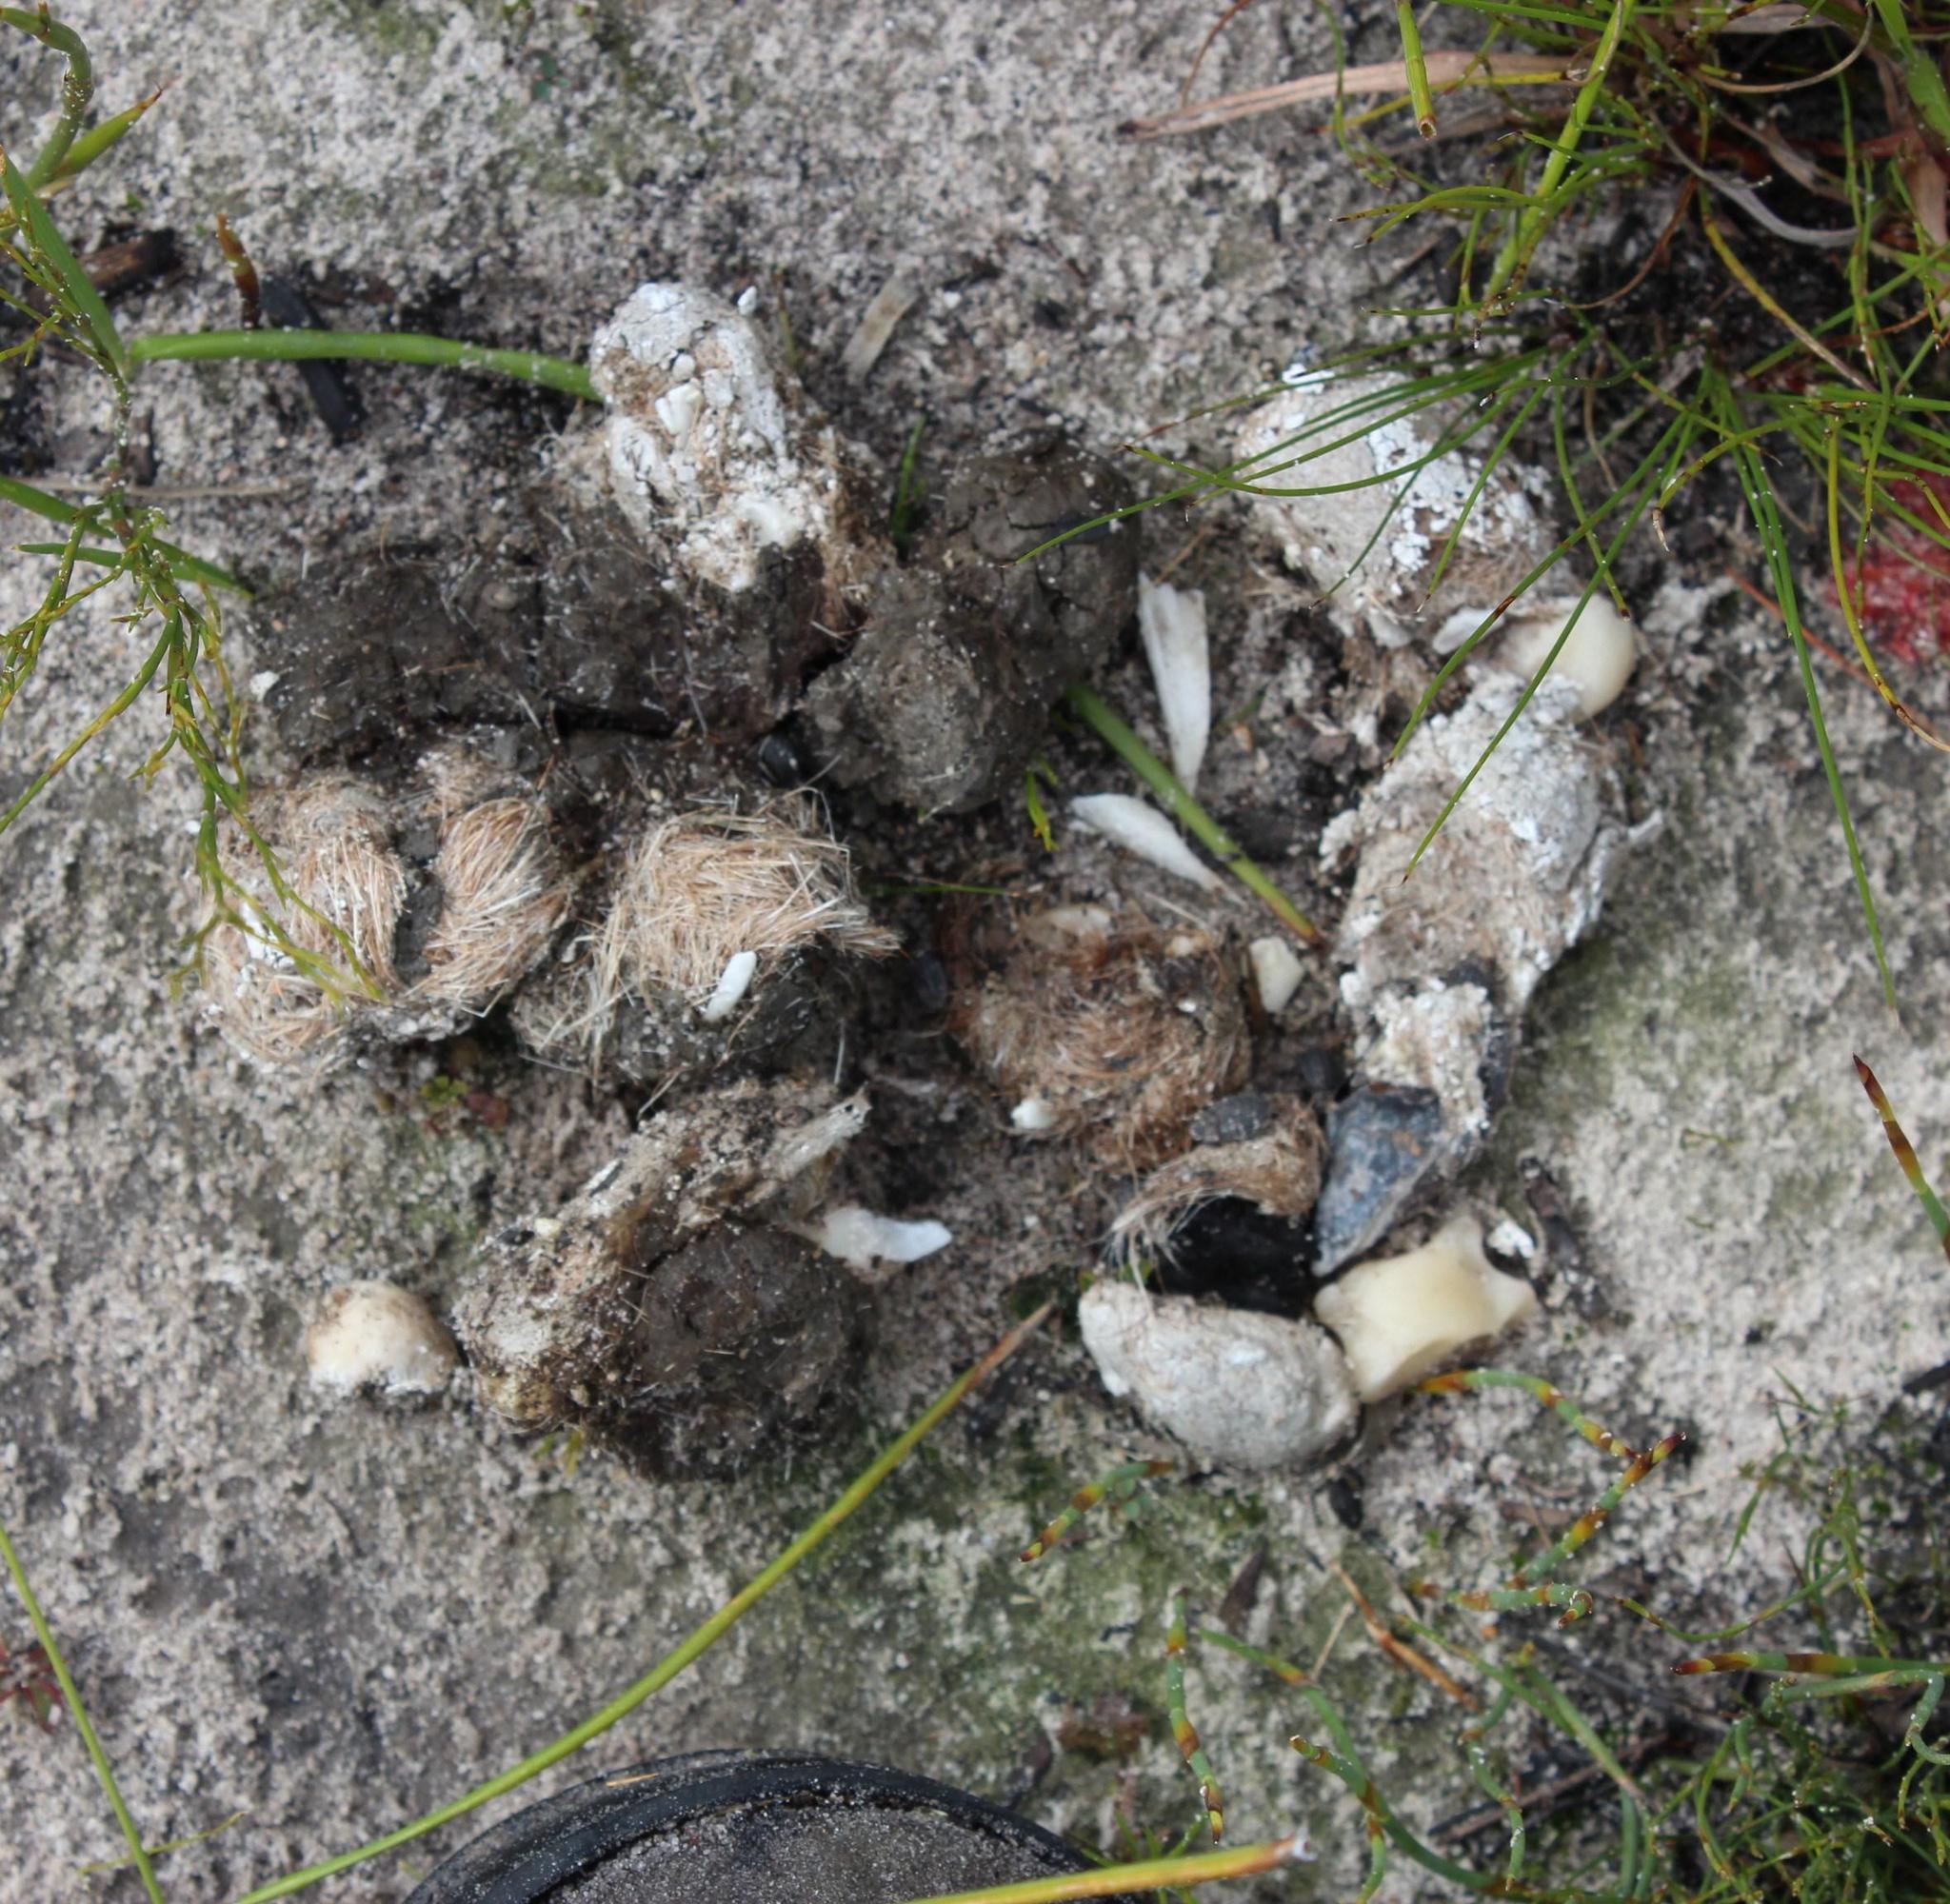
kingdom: Animalia
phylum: Chordata
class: Mammalia
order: Carnivora
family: Felidae
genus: Panthera
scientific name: Panthera pardus
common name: Leopard
